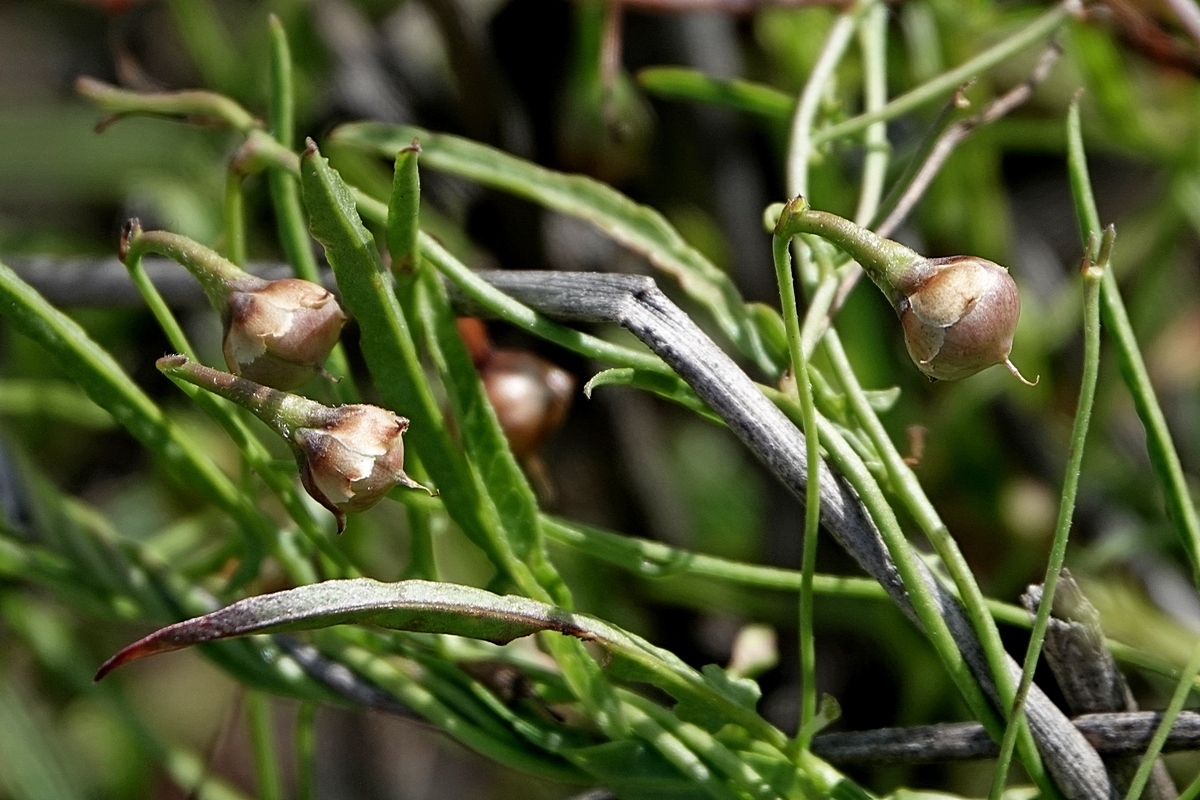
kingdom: Plantae
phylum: Tracheophyta
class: Magnoliopsida
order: Solanales
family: Convolvulaceae
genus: Convolvulus
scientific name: Convolvulus angustissimus
